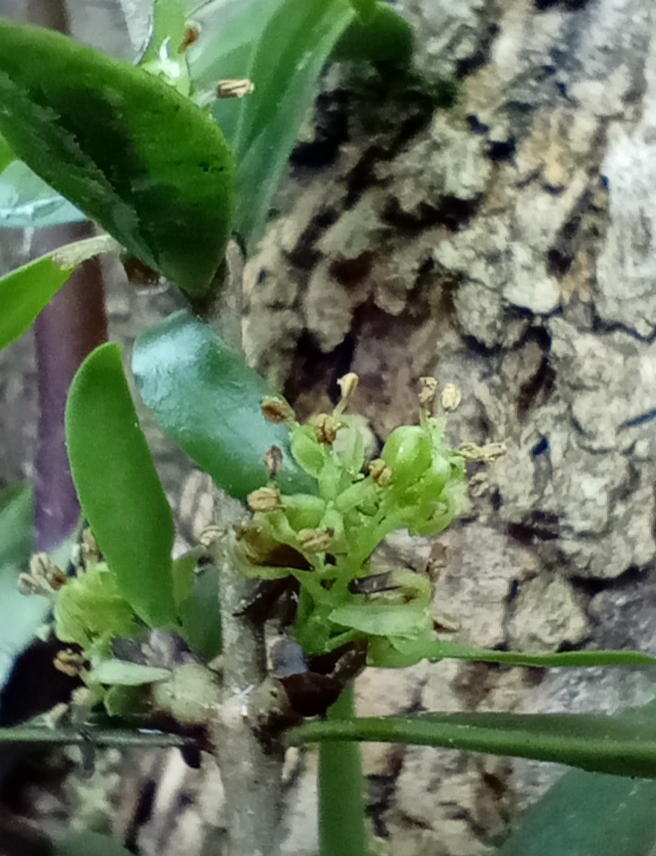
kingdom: Plantae
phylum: Tracheophyta
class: Magnoliopsida
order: Santalales
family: Loranthaceae
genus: Tupeia
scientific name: Tupeia antarctica
